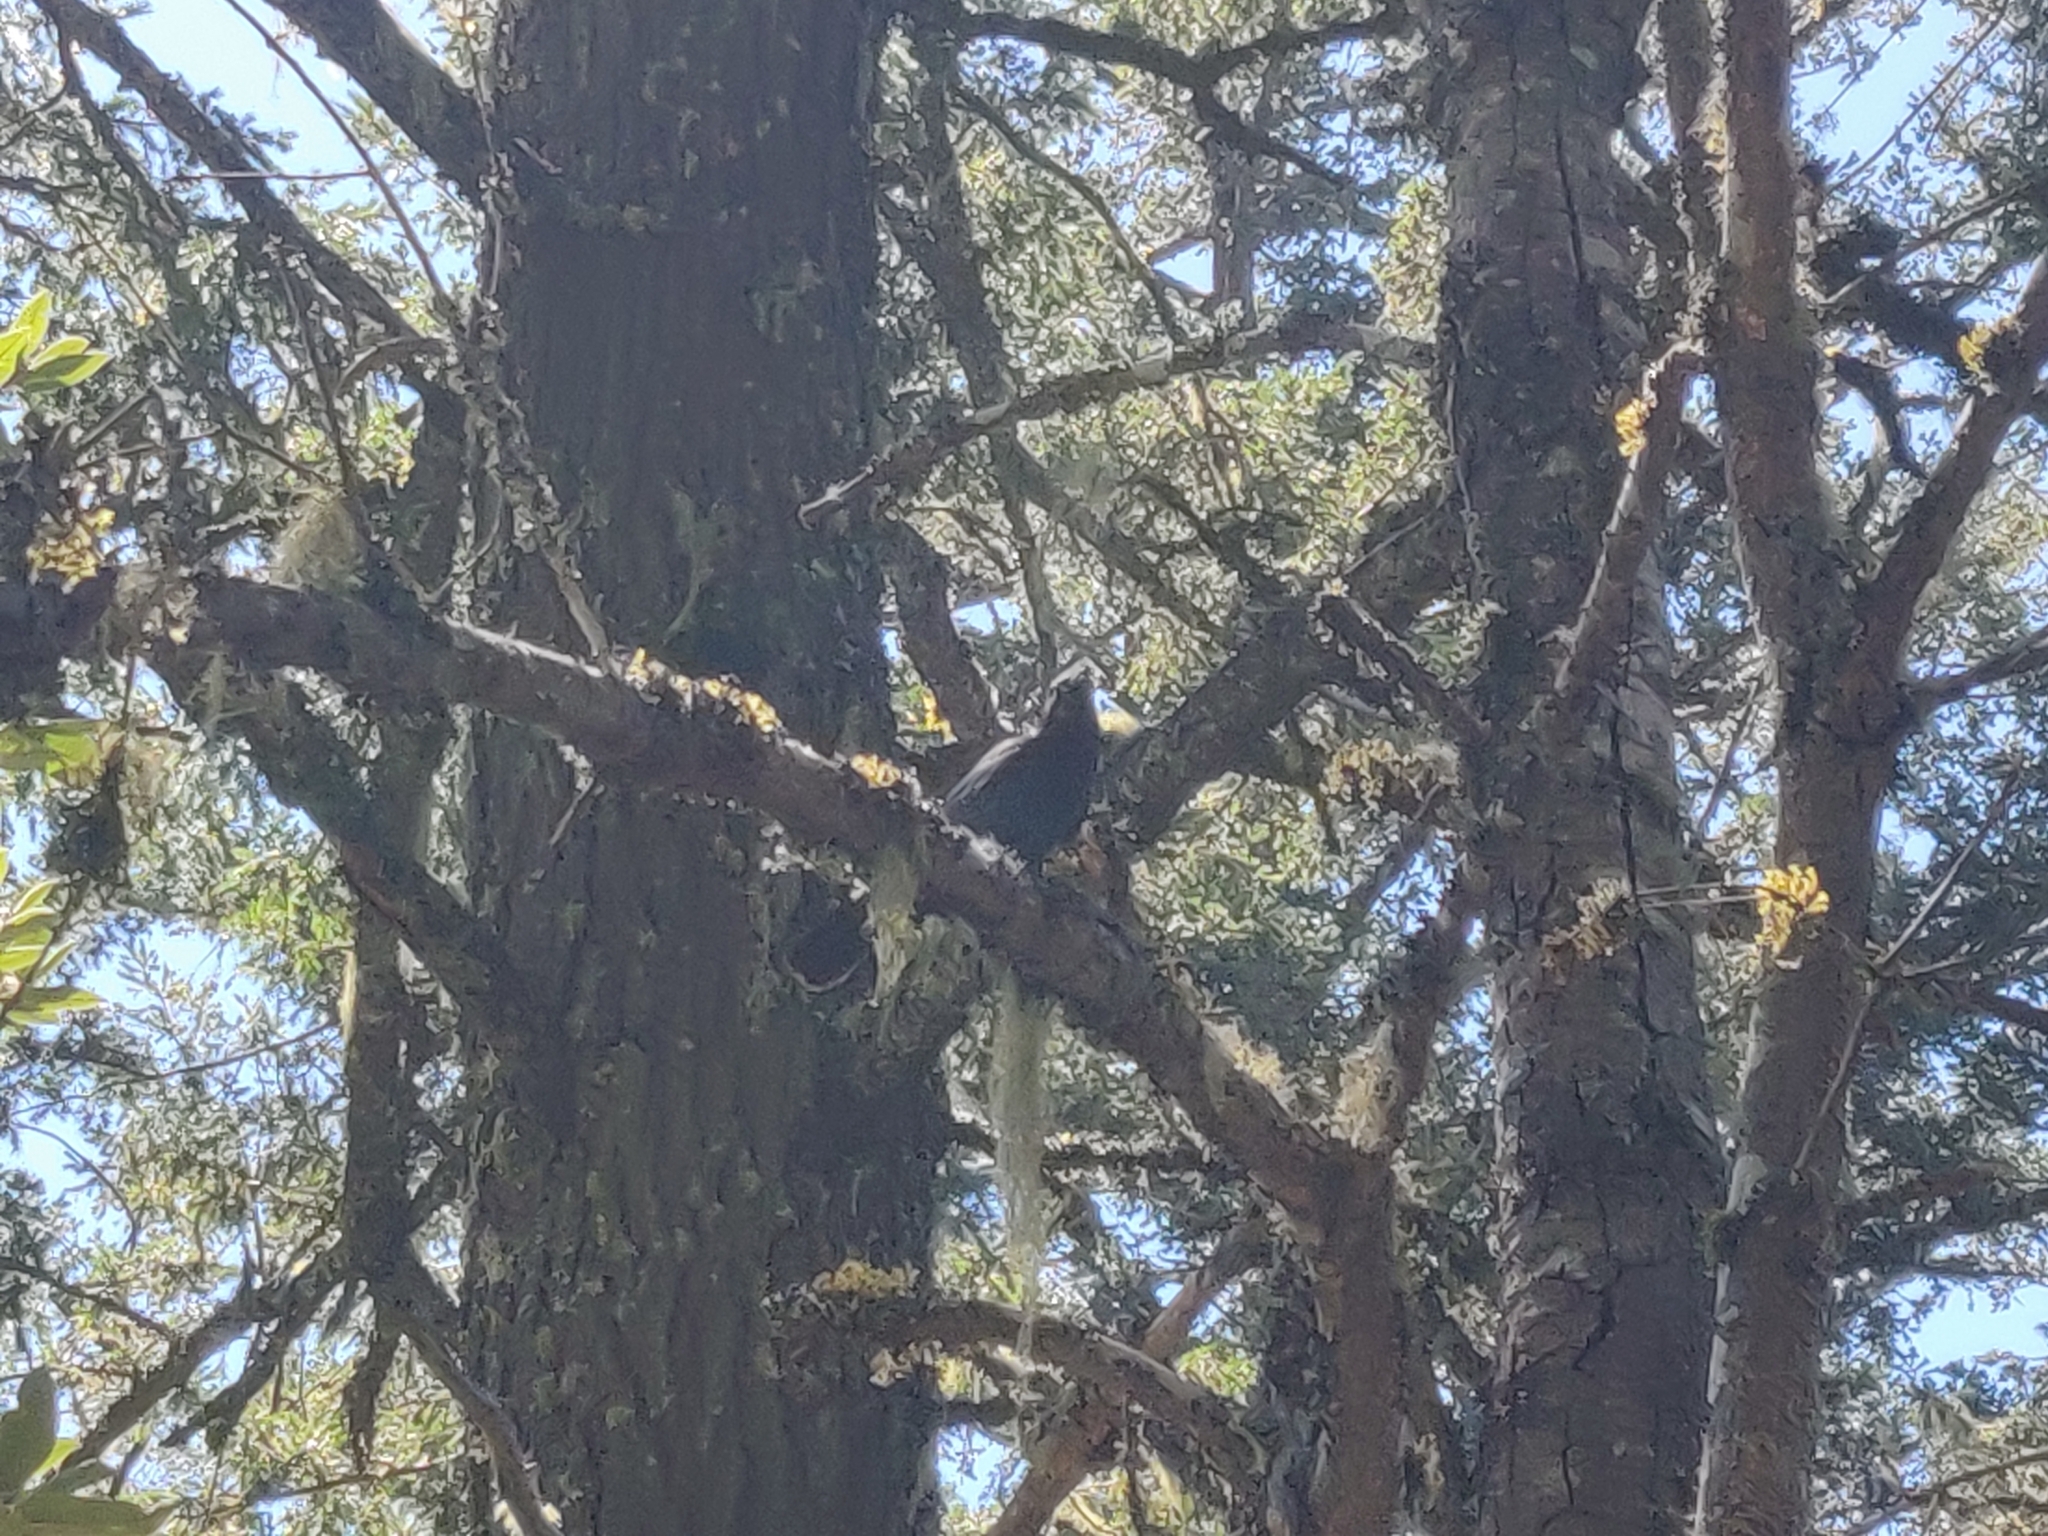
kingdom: Animalia
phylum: Chordata
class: Aves
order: Passeriformes
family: Corvidae
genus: Cyanocitta
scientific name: Cyanocitta stelleri
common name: Steller's jay
